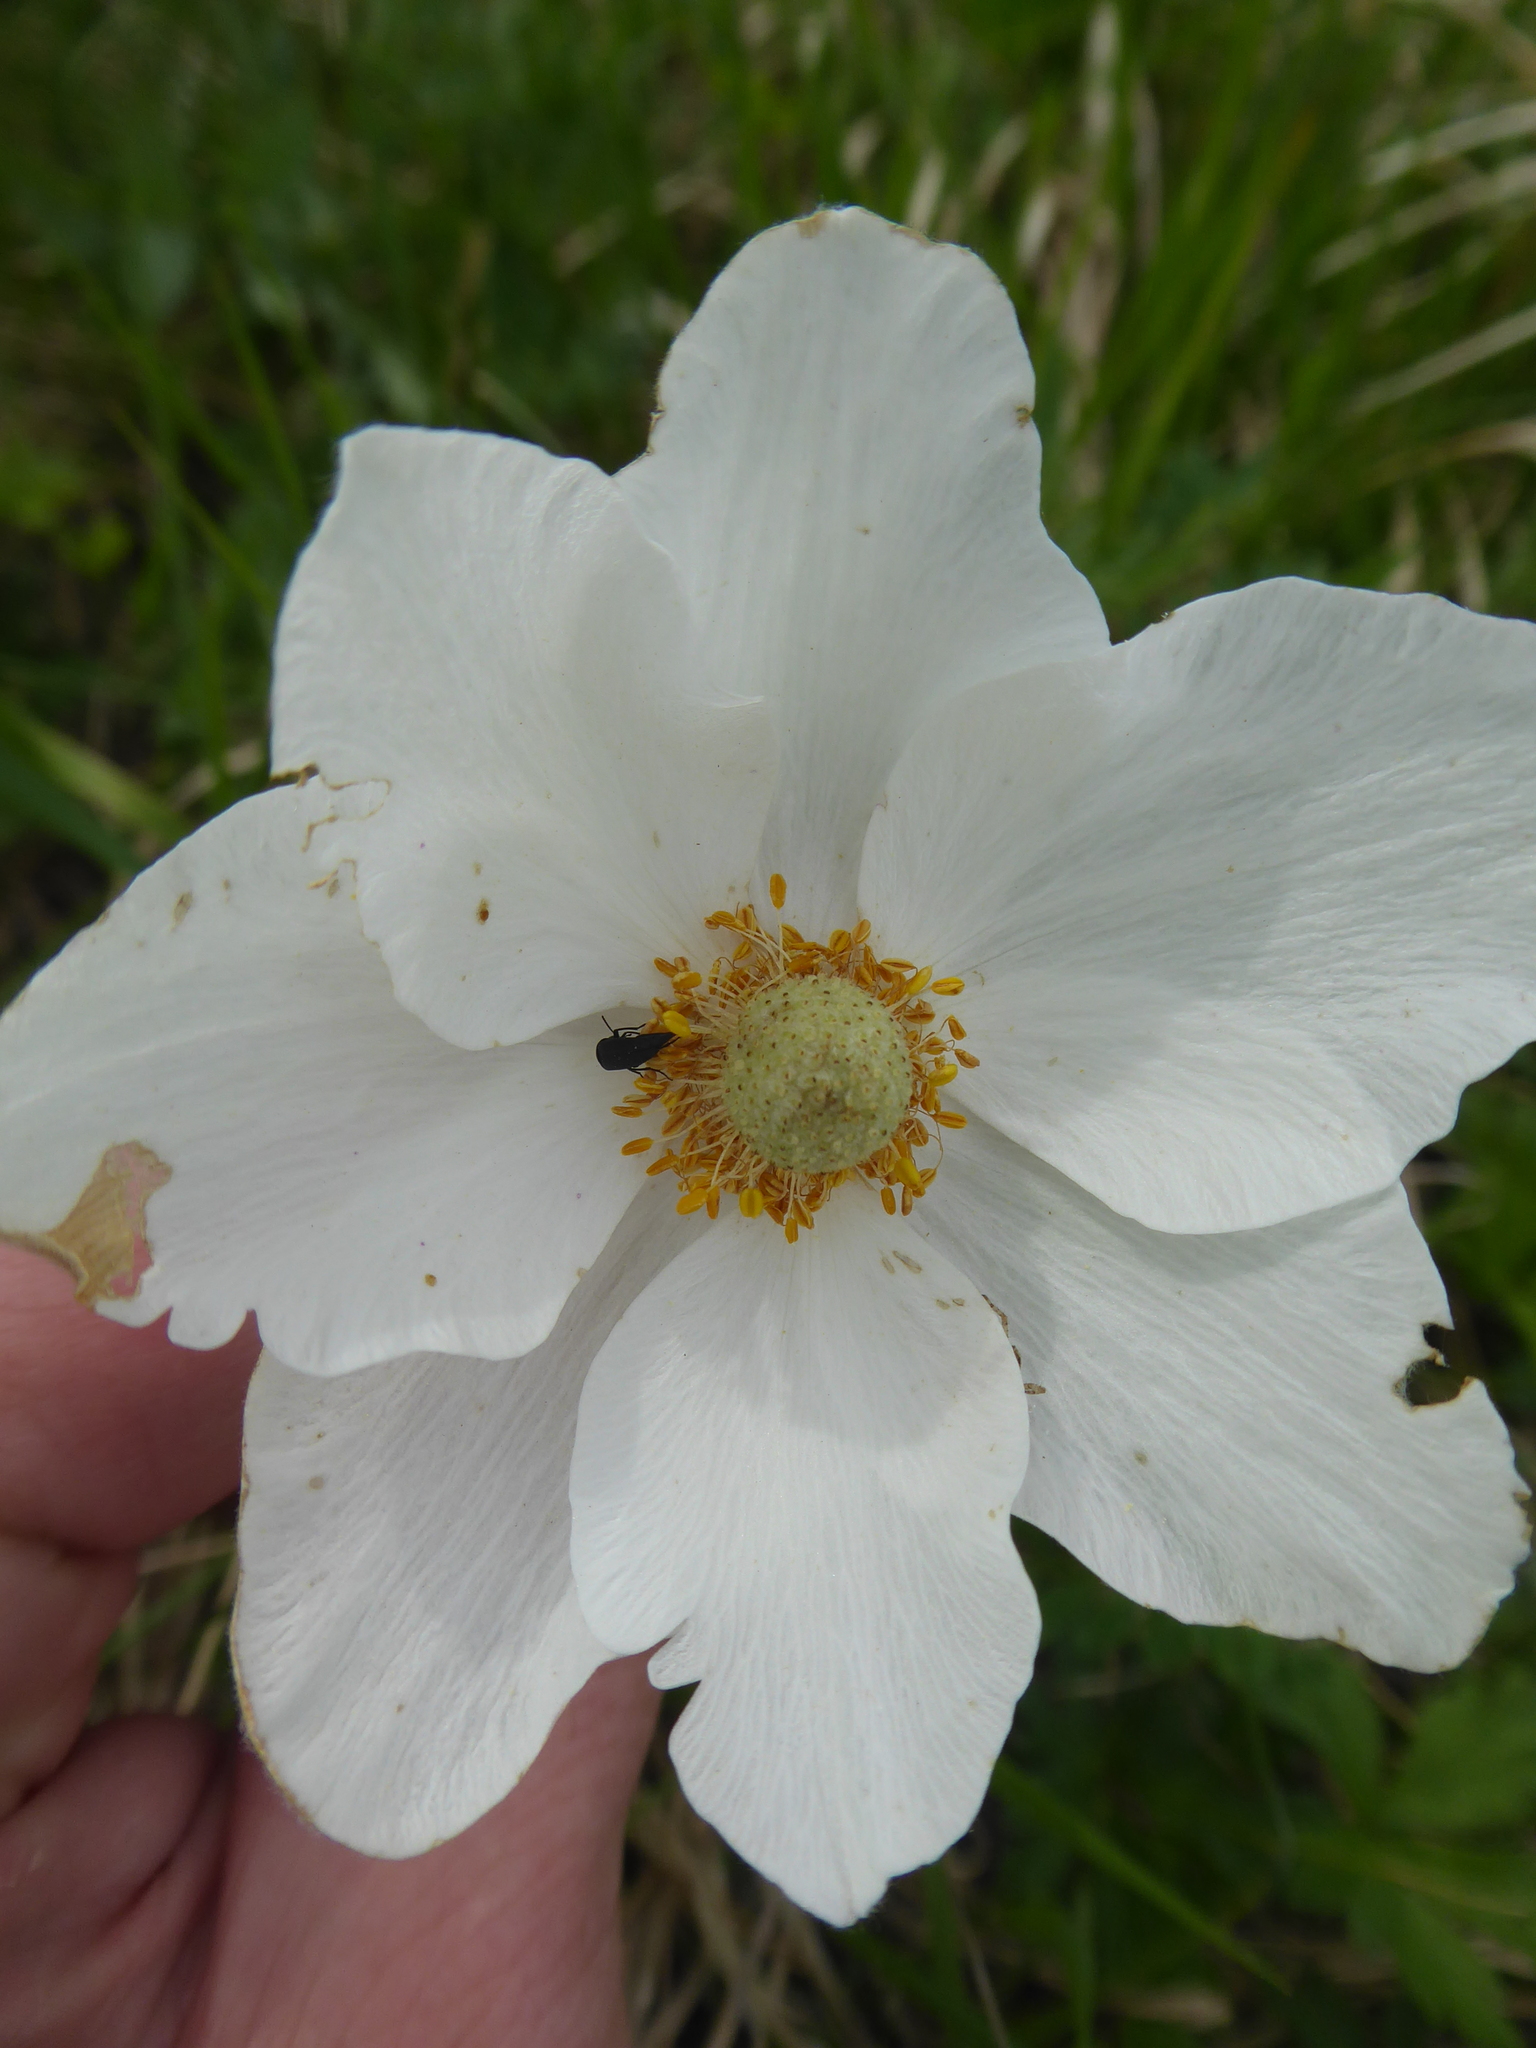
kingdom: Plantae
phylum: Tracheophyta
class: Magnoliopsida
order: Ranunculales
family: Ranunculaceae
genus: Anemone
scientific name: Anemone sylvestris
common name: Snowdrop anemone
